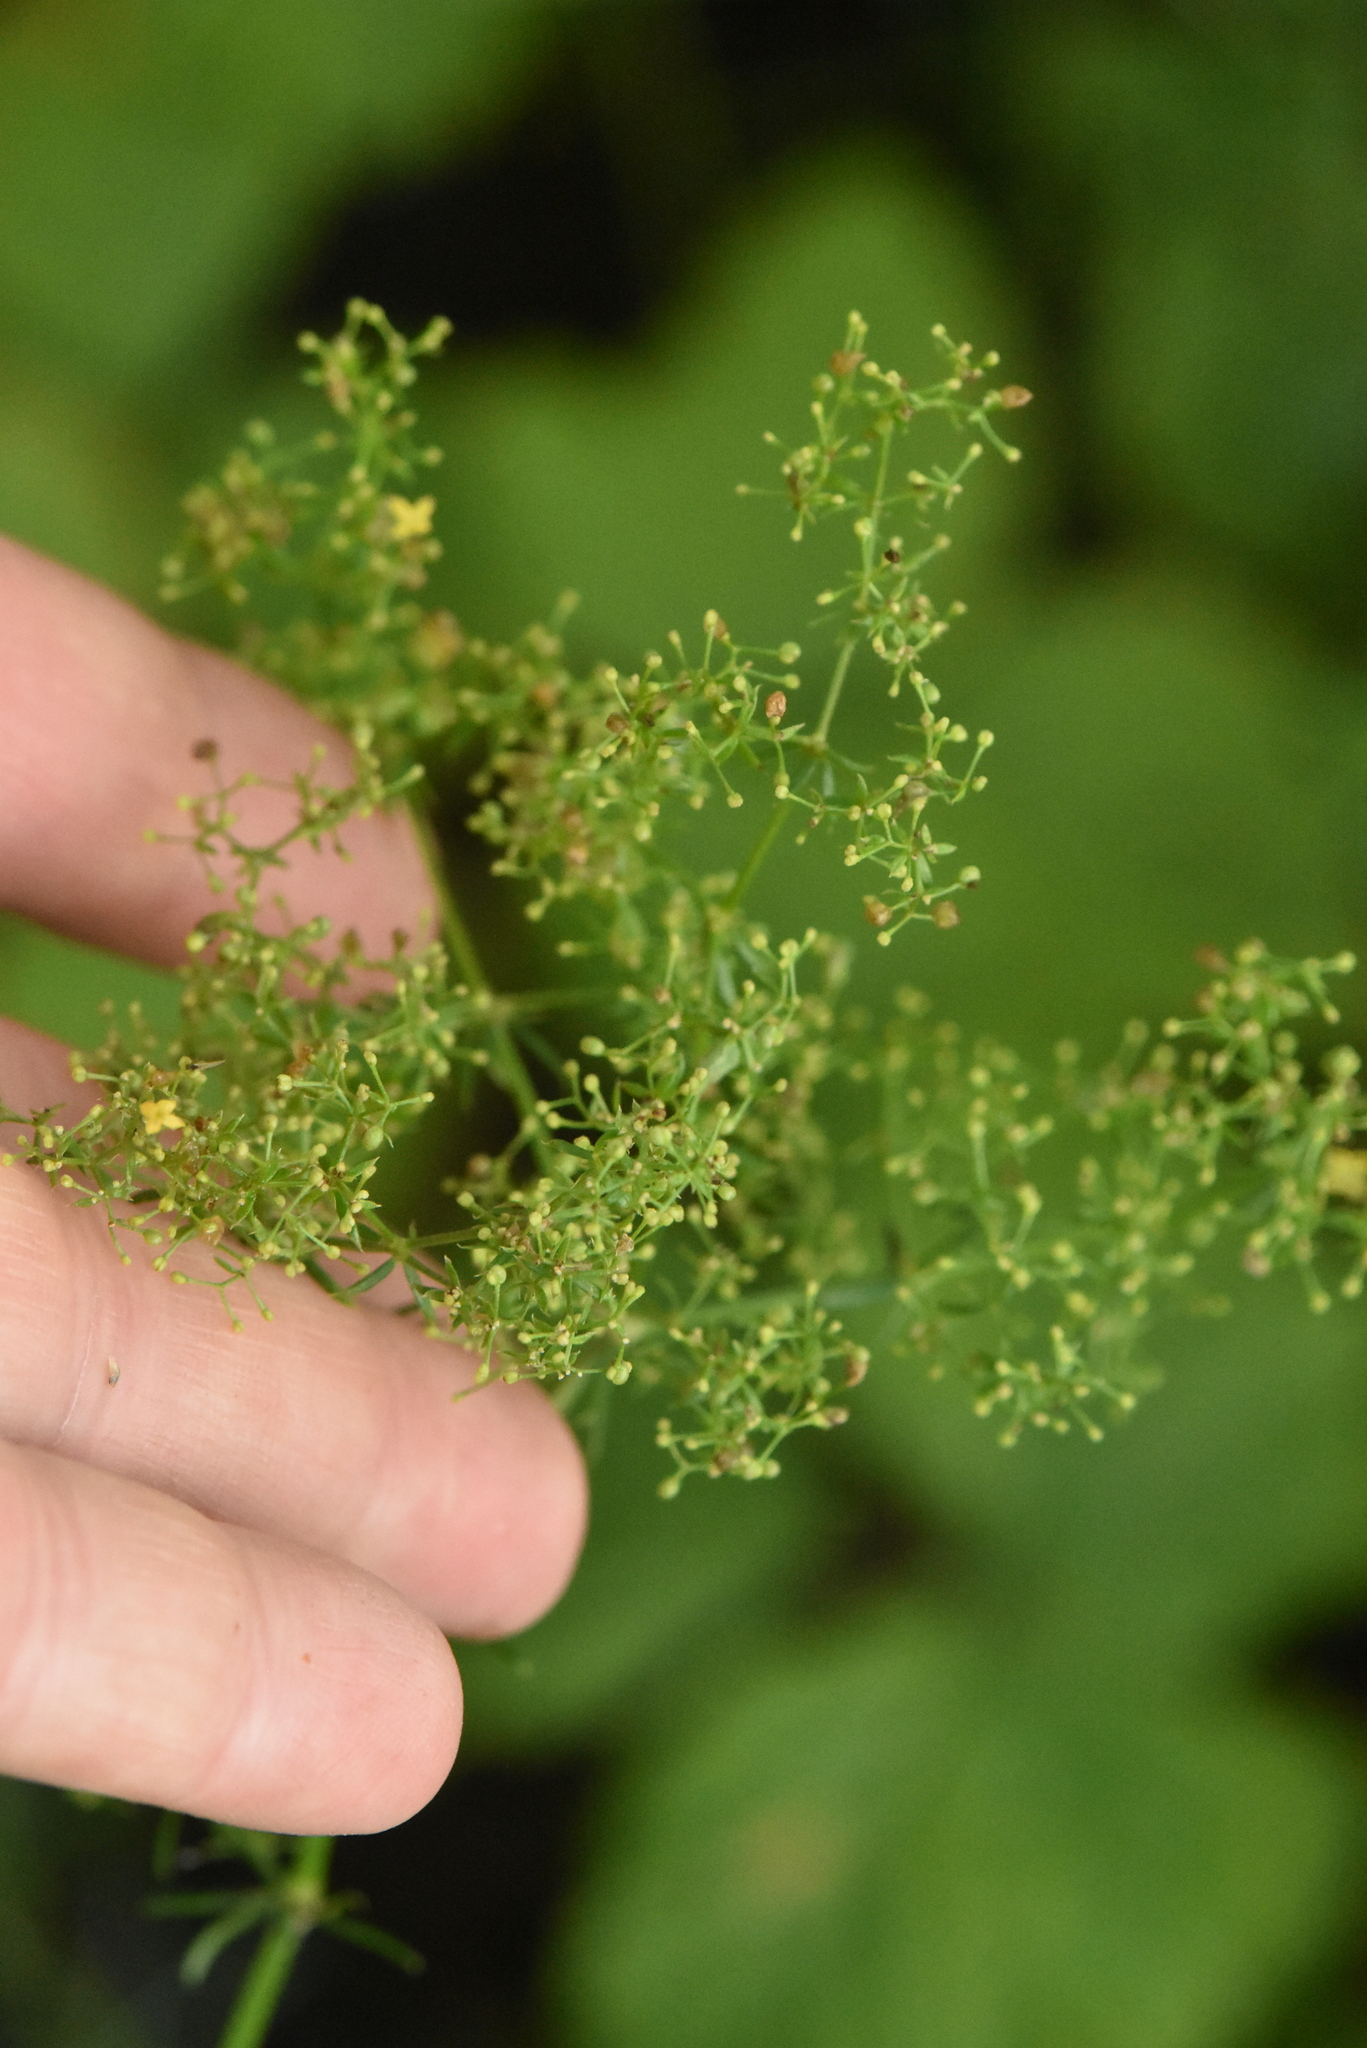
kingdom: Plantae
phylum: Tracheophyta
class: Magnoliopsida
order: Gentianales
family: Rubiaceae
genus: Galium
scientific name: Galium verum
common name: Lady's bedstraw
